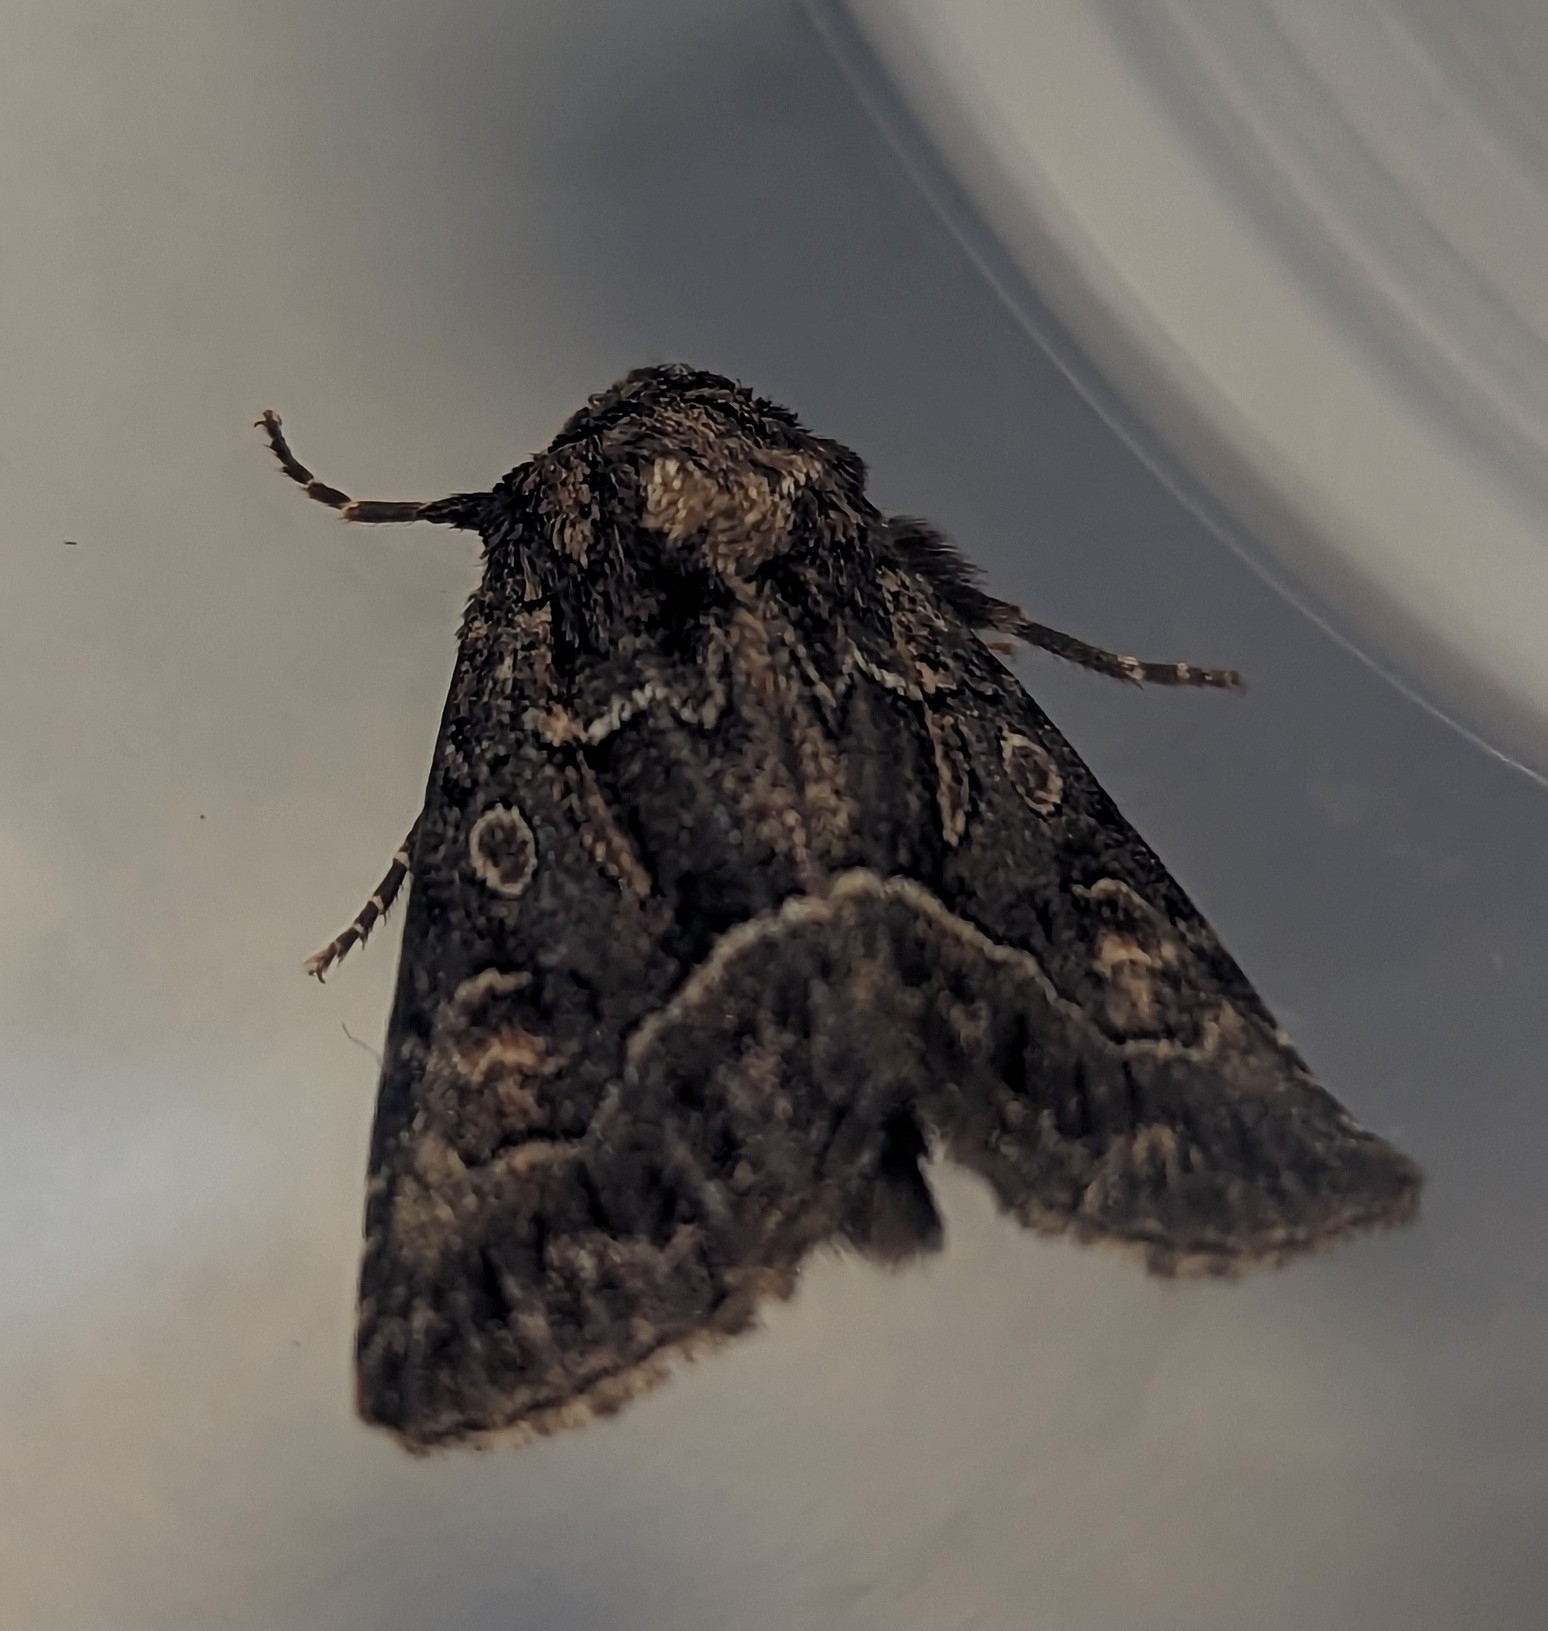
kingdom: Animalia
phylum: Arthropoda
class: Insecta
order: Lepidoptera
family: Noctuidae
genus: Thalpophila
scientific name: Thalpophila matura
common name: Straw underwing
